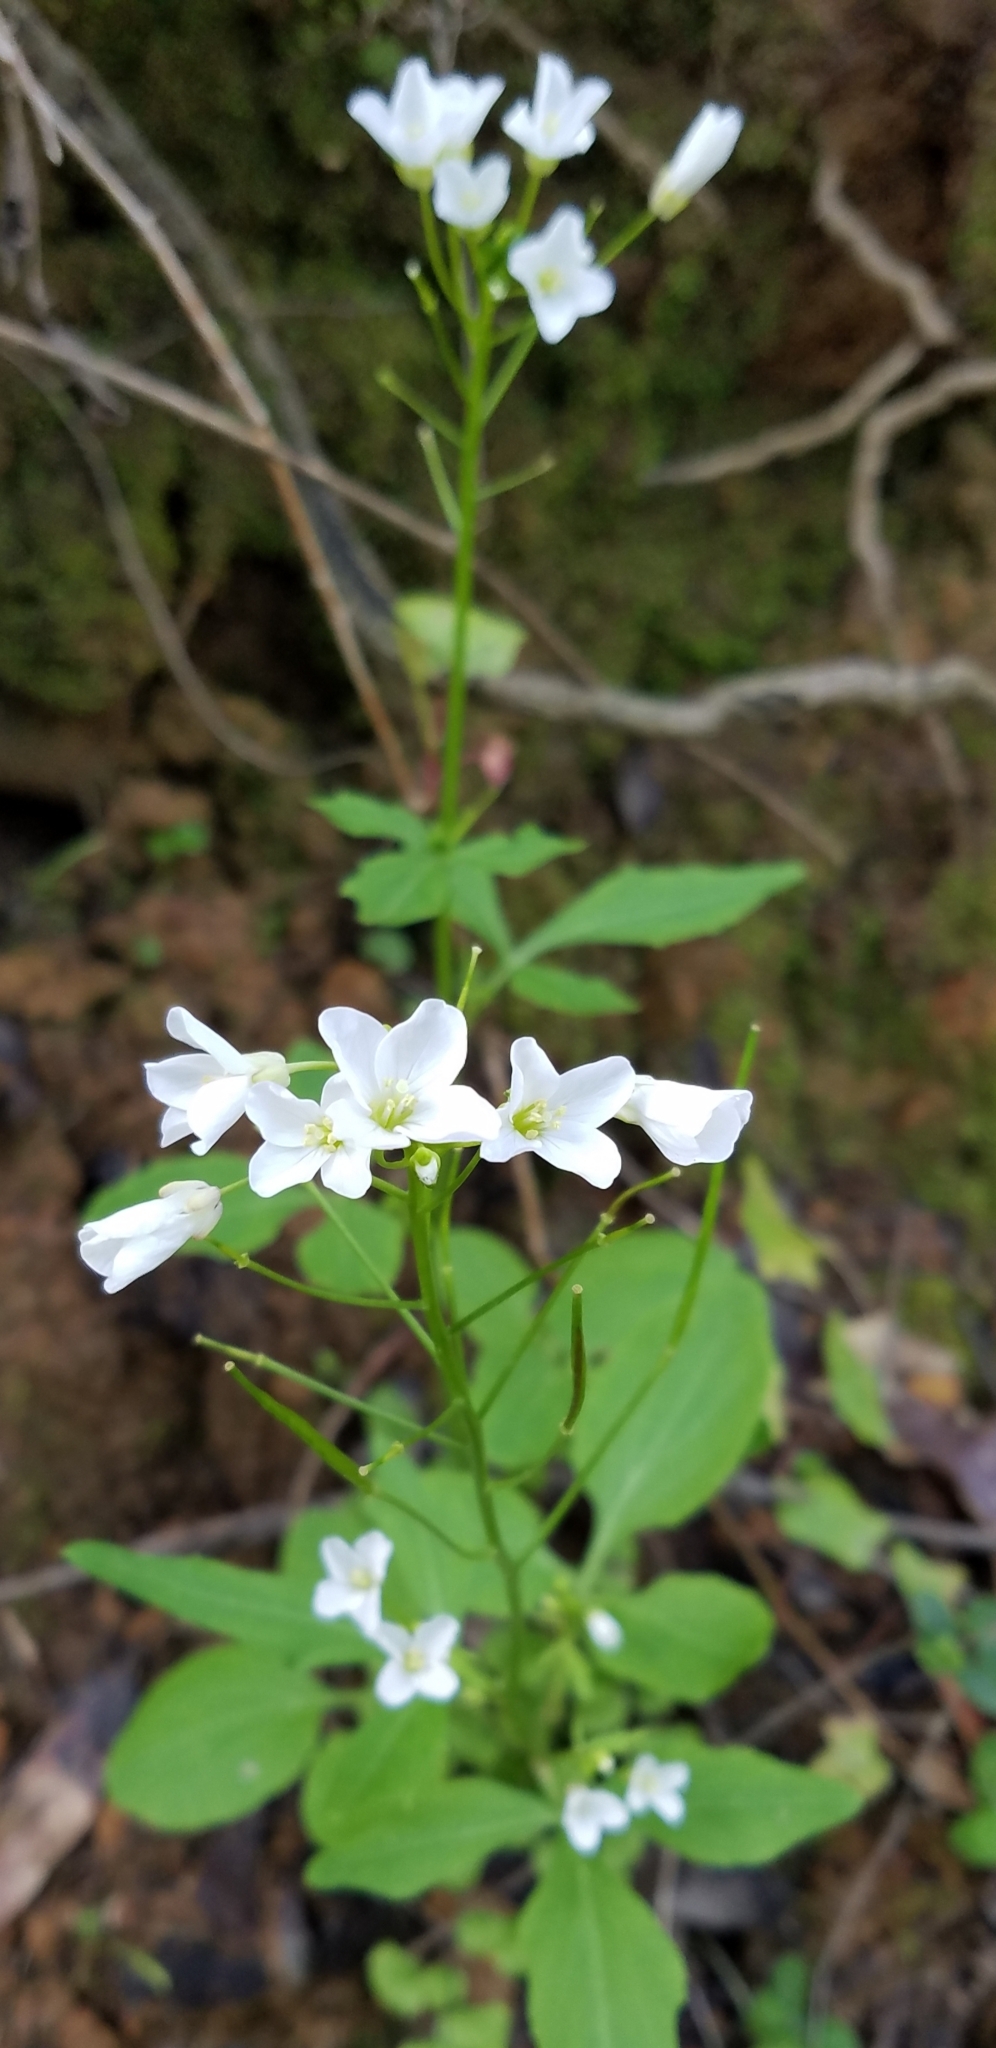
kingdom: Plantae
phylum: Tracheophyta
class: Magnoliopsida
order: Brassicales
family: Brassicaceae
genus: Cardamine
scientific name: Cardamine californica
